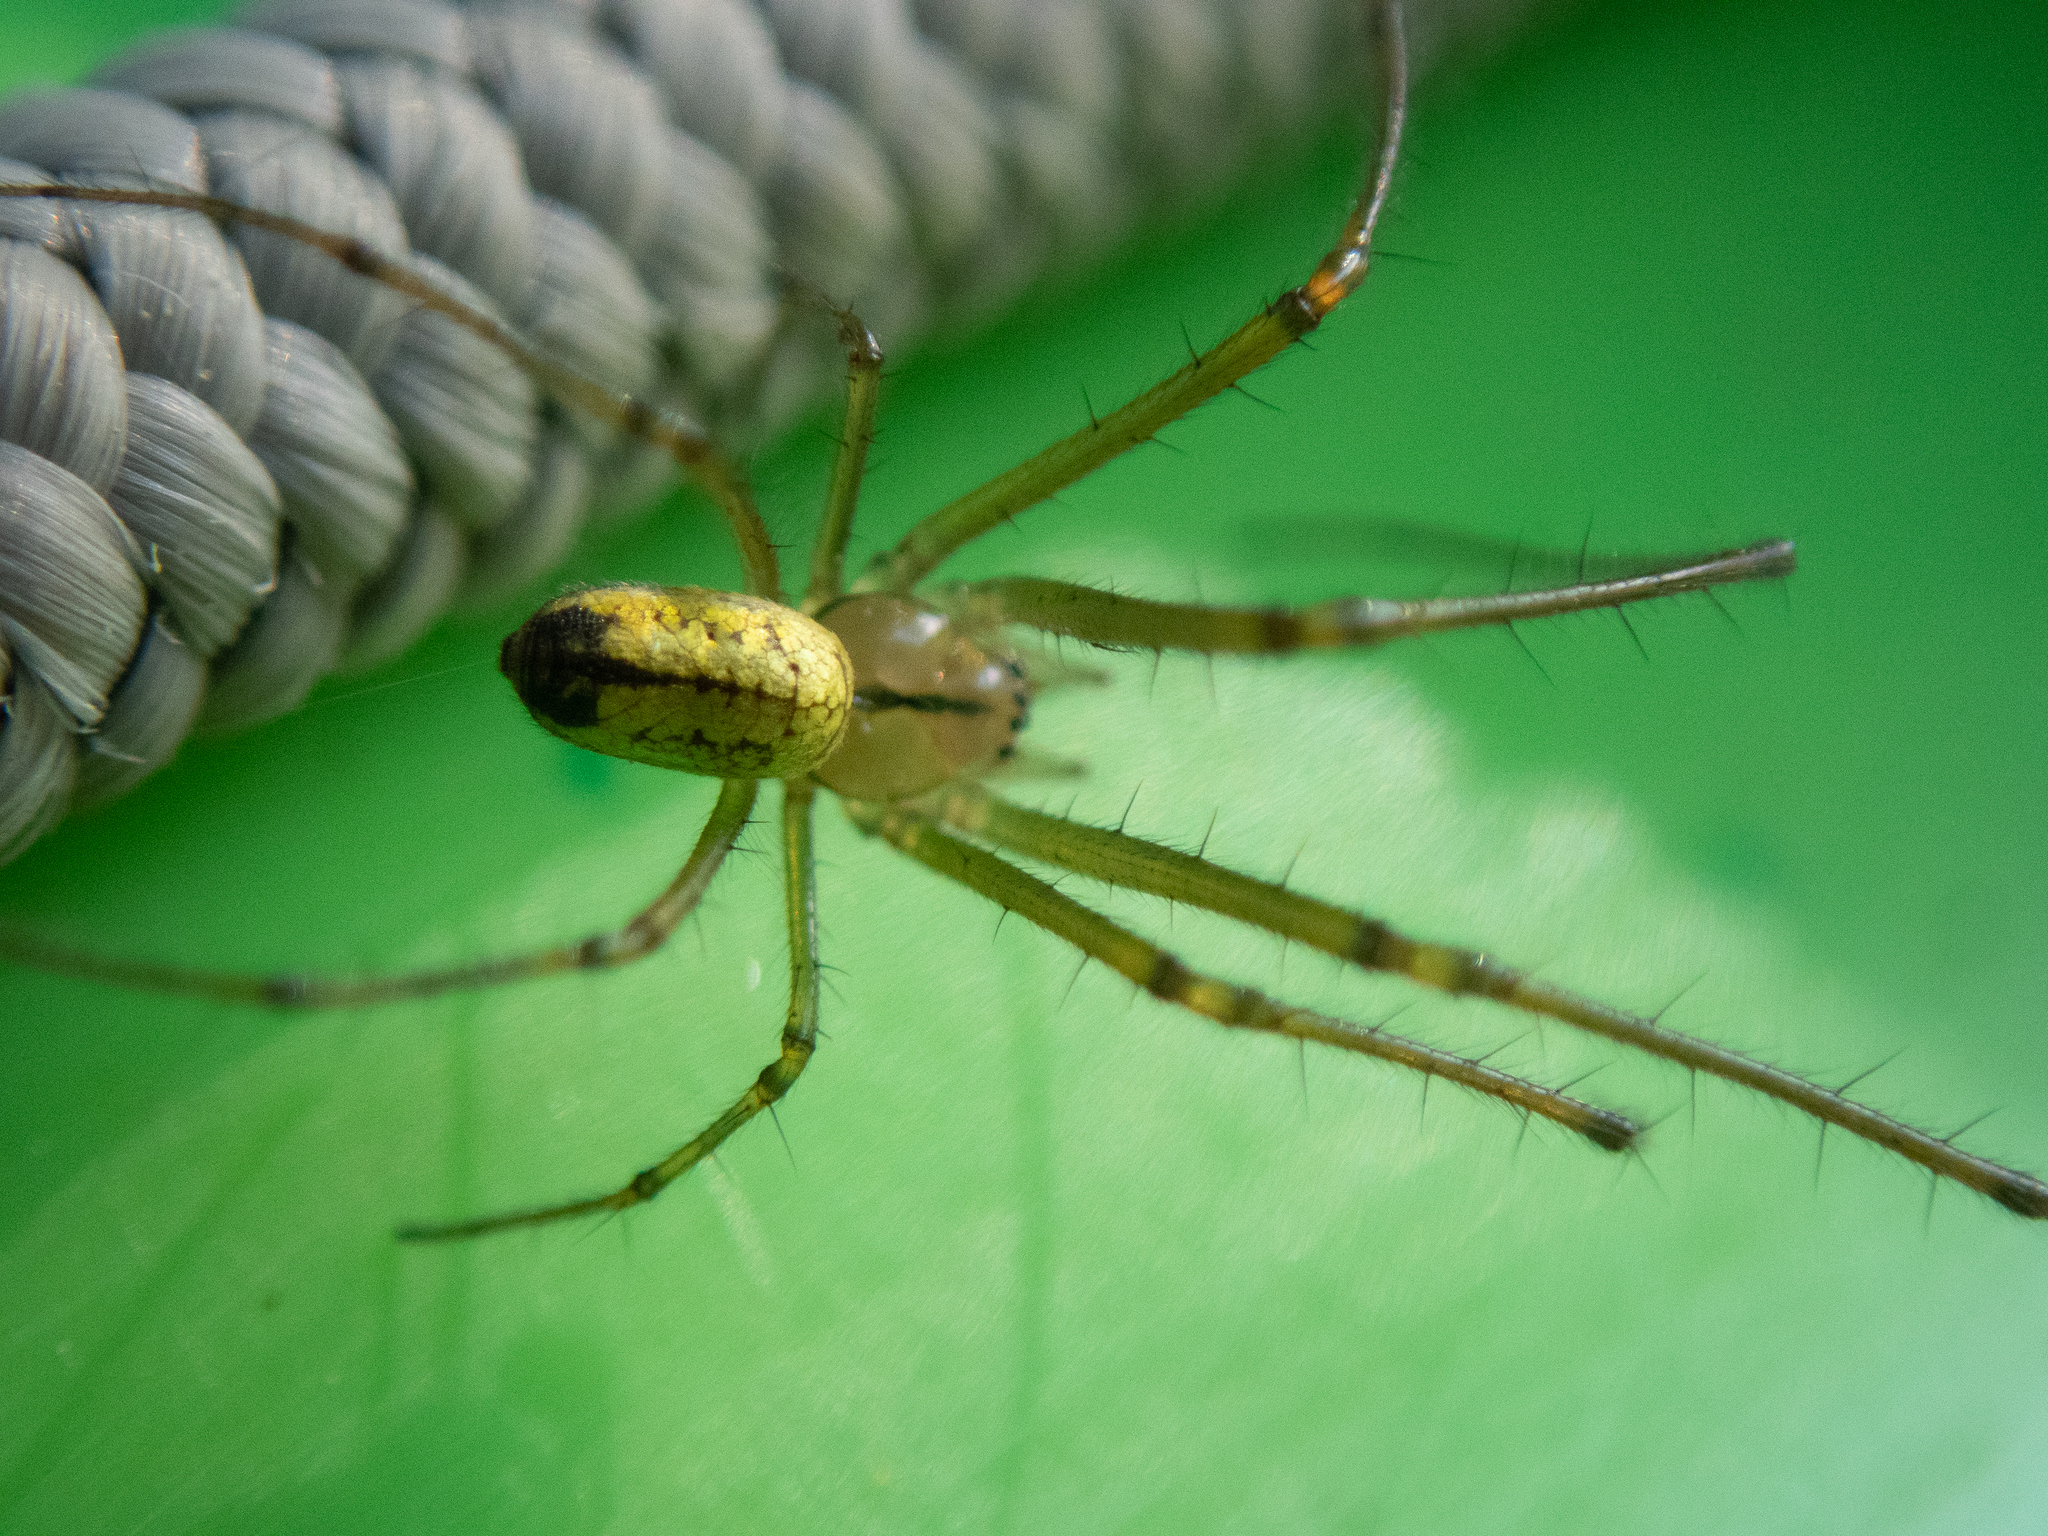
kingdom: Animalia
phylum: Arthropoda
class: Arachnida
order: Araneae
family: Tetragnathidae
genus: Leucauge
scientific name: Leucauge venusta
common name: Longjawed orb weavers
